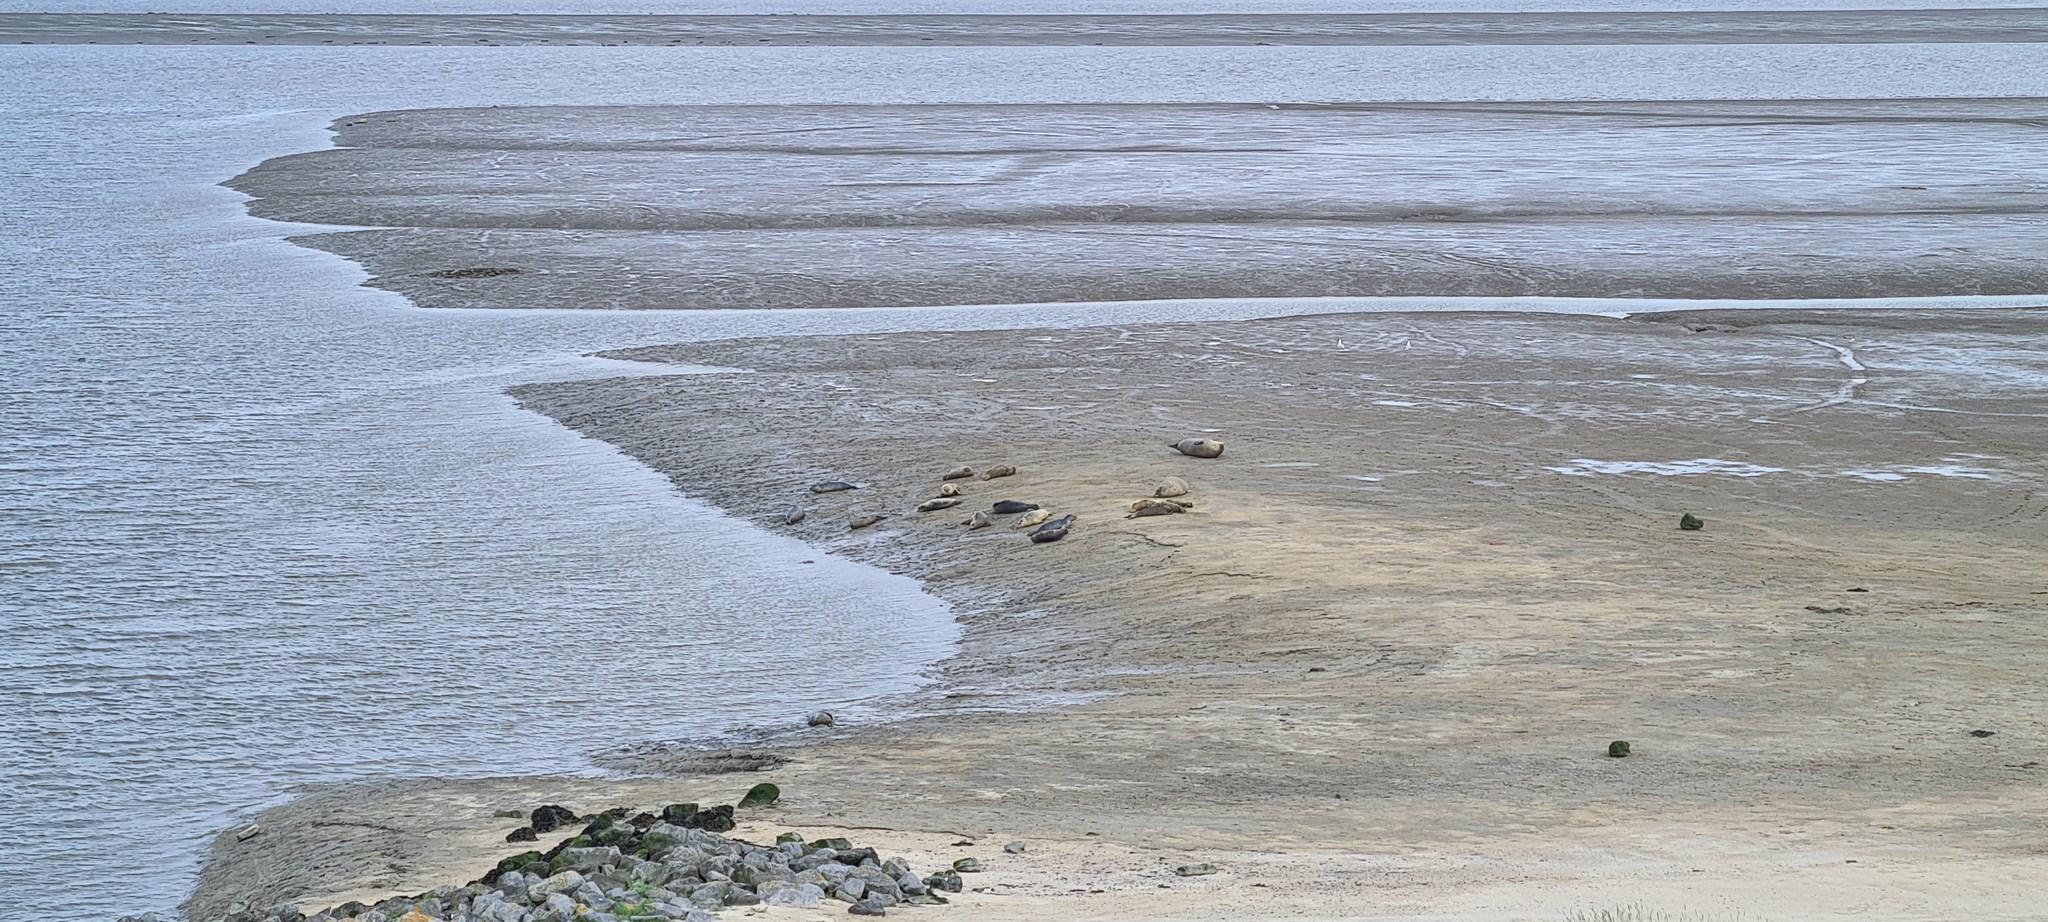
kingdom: Animalia
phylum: Chordata
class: Mammalia
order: Carnivora
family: Phocidae
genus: Phoca
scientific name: Phoca vitulina
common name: Harbor seal
